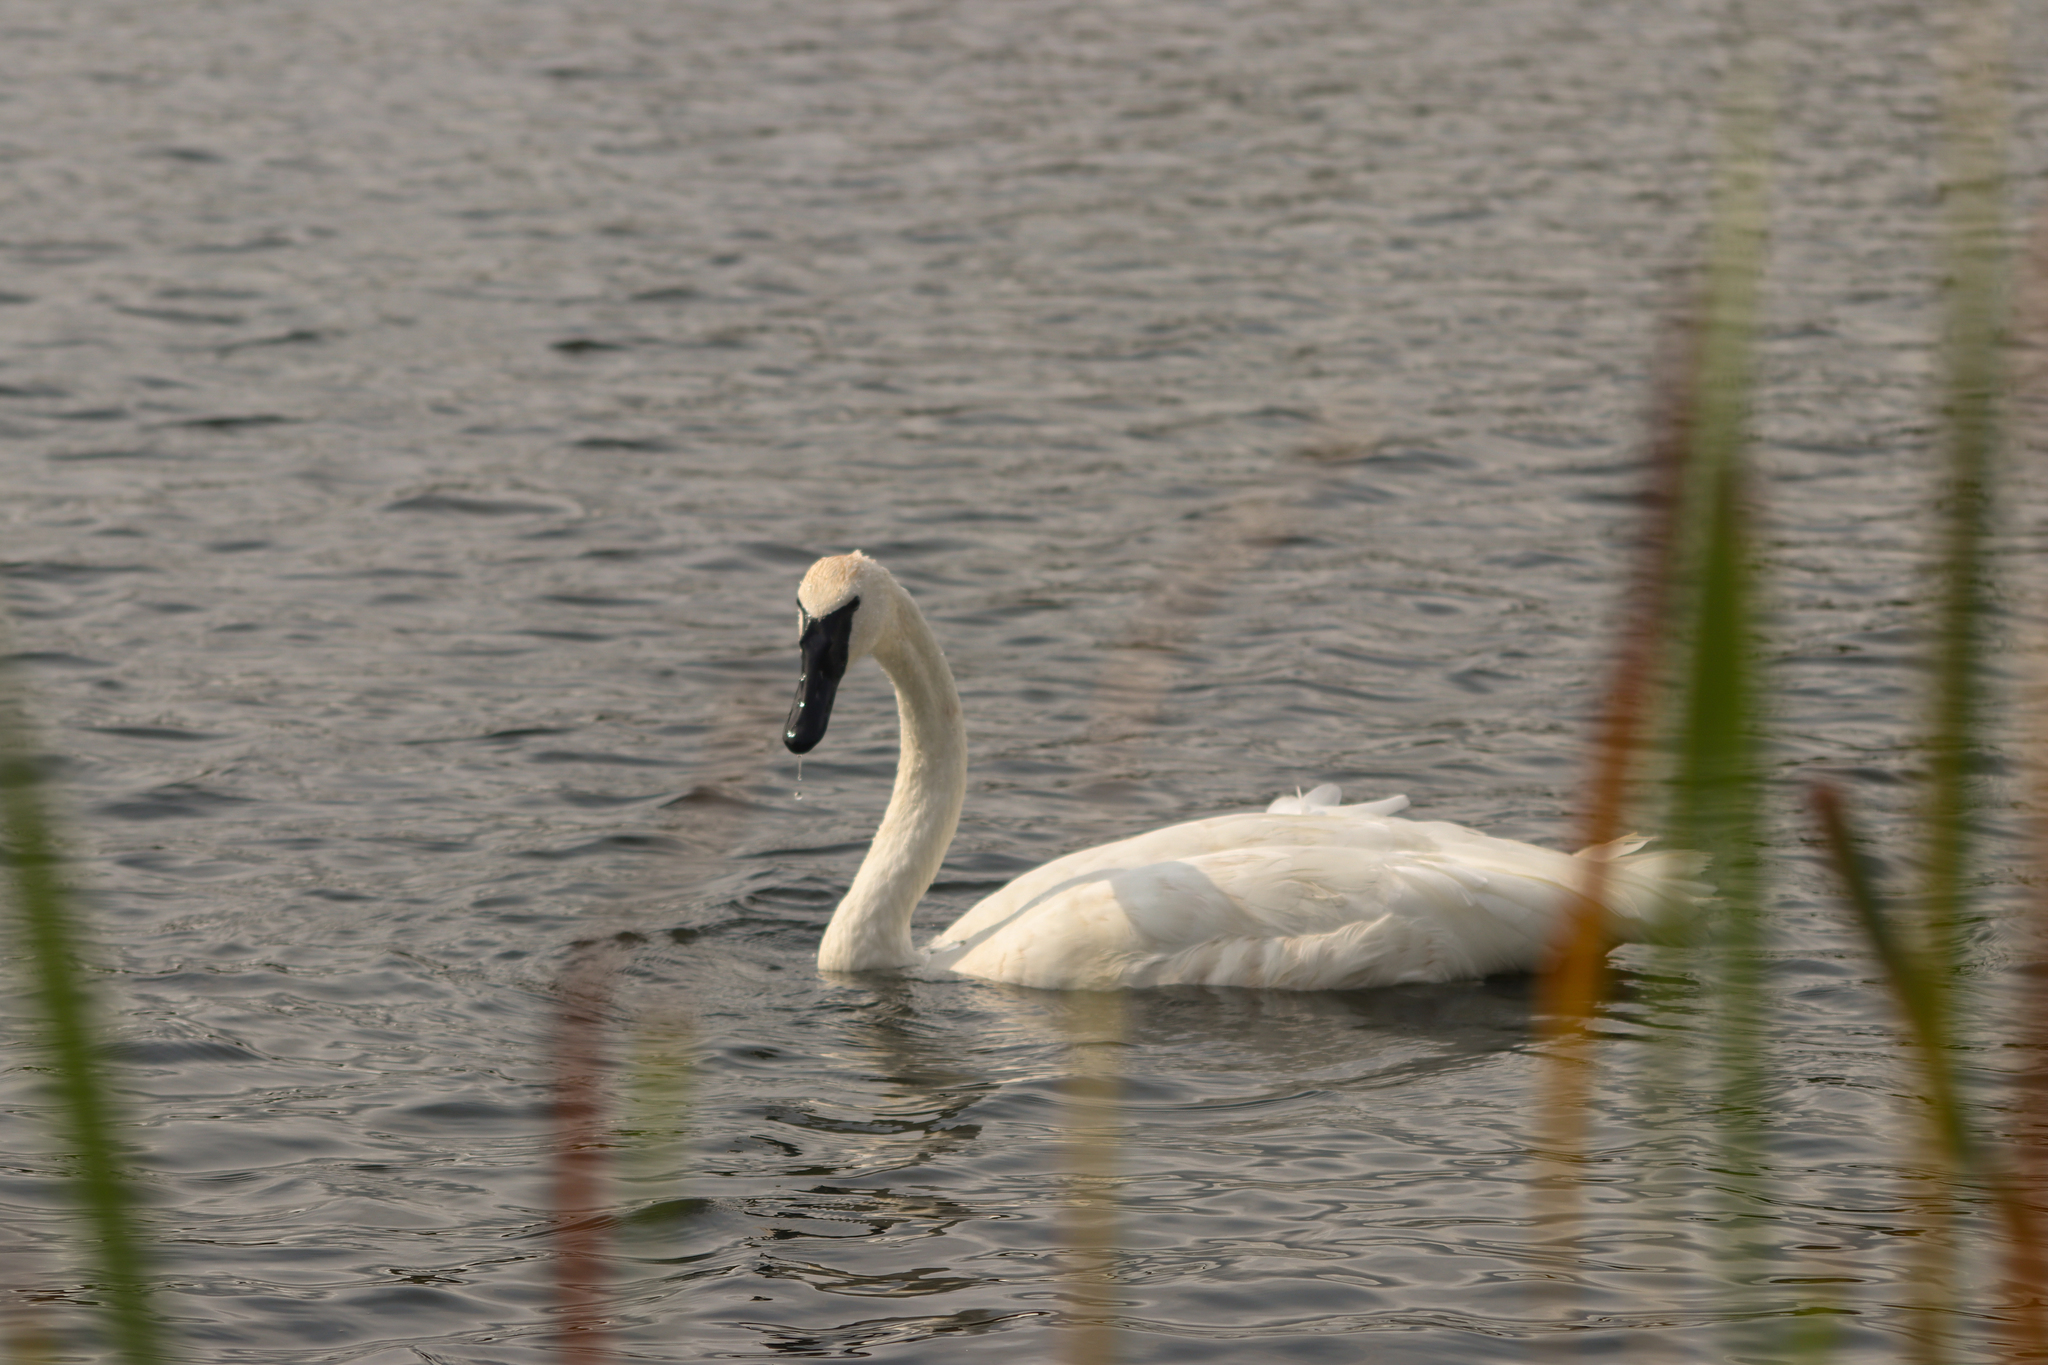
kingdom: Animalia
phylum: Chordata
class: Aves
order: Anseriformes
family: Anatidae
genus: Cygnus
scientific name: Cygnus buccinator
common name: Trumpeter swan
